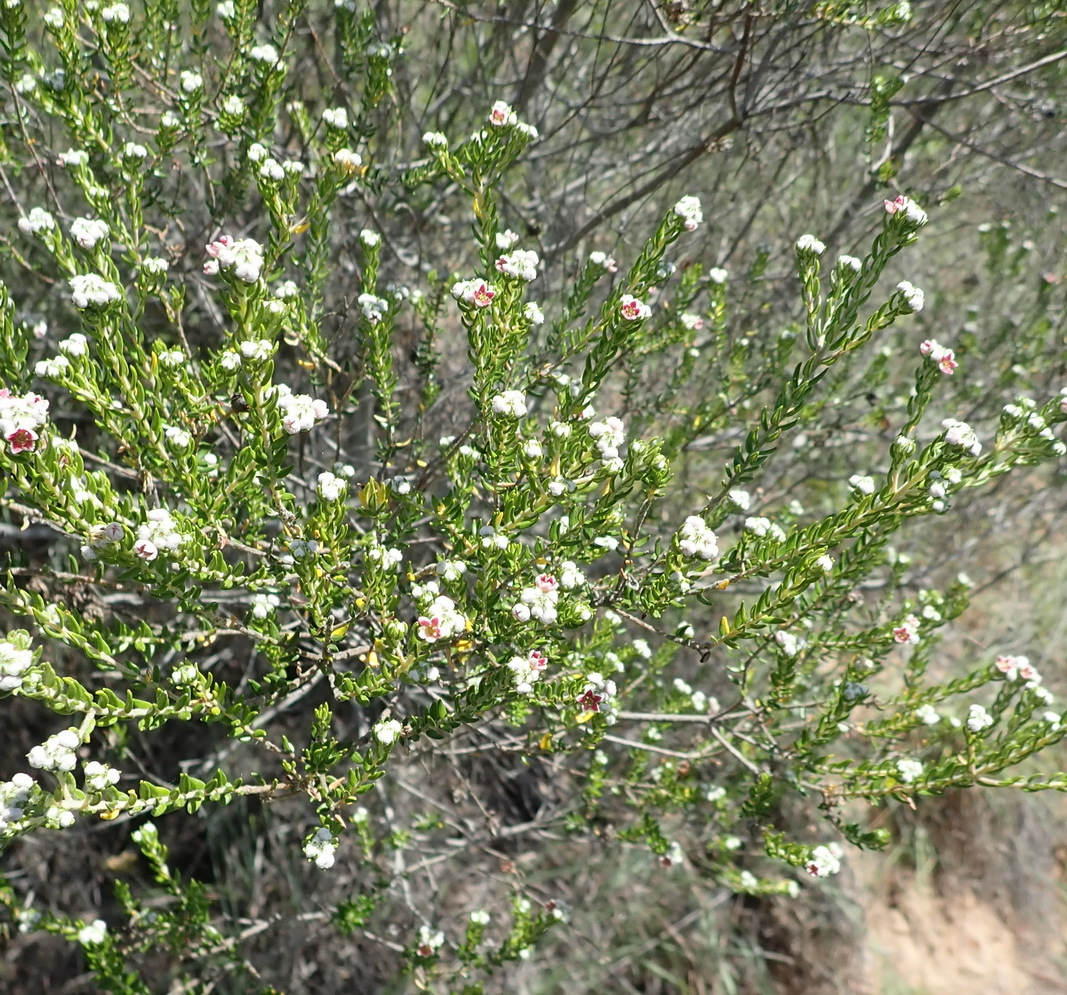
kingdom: Plantae
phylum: Tracheophyta
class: Magnoliopsida
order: Rosales
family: Rhamnaceae
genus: Phylica
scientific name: Phylica purpurea
